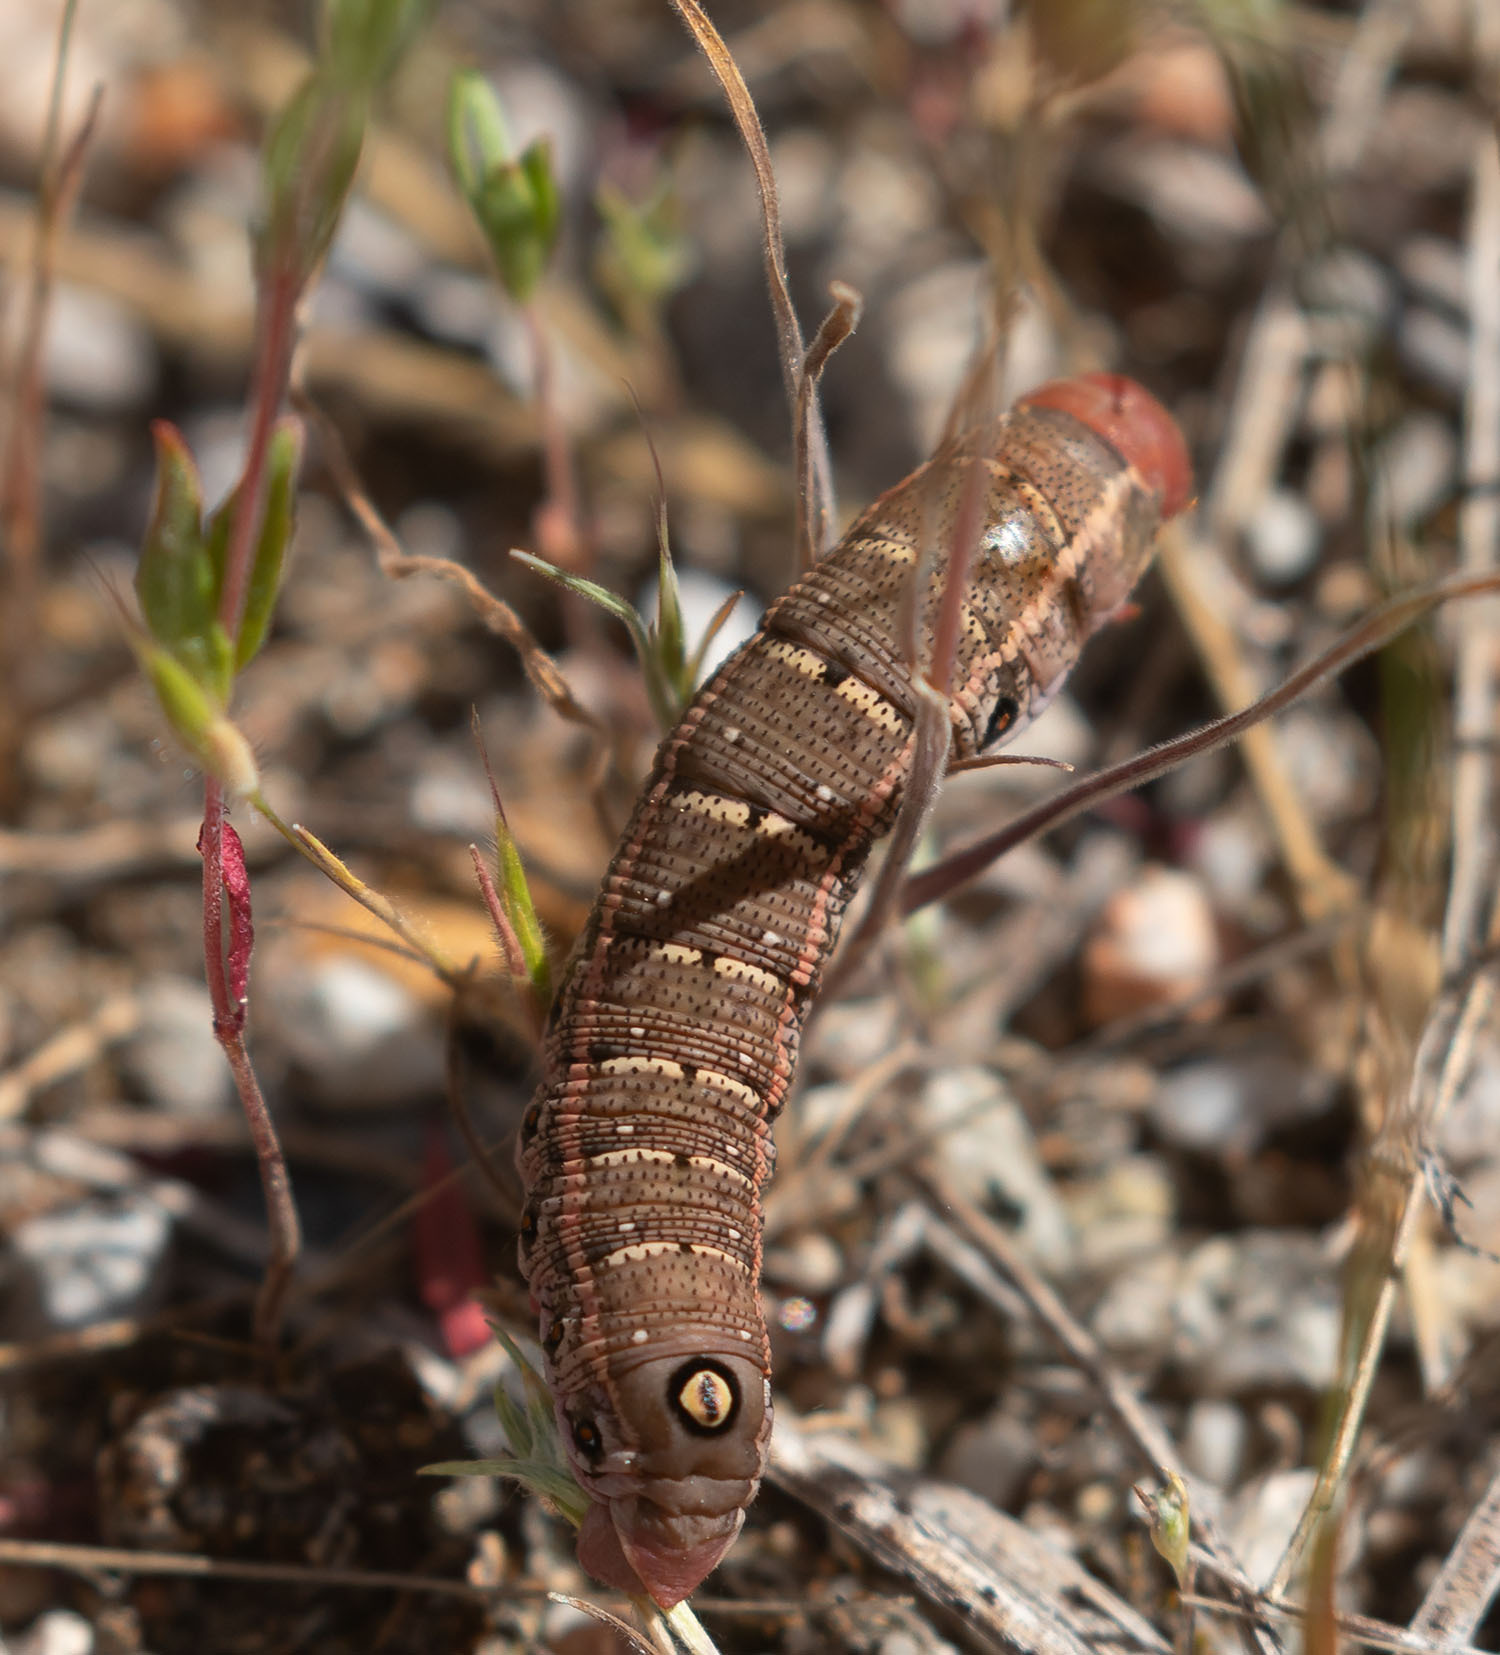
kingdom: Animalia
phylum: Arthropoda
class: Insecta
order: Lepidoptera
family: Sphingidae
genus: Proserpinus
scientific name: Proserpinus lucidus
